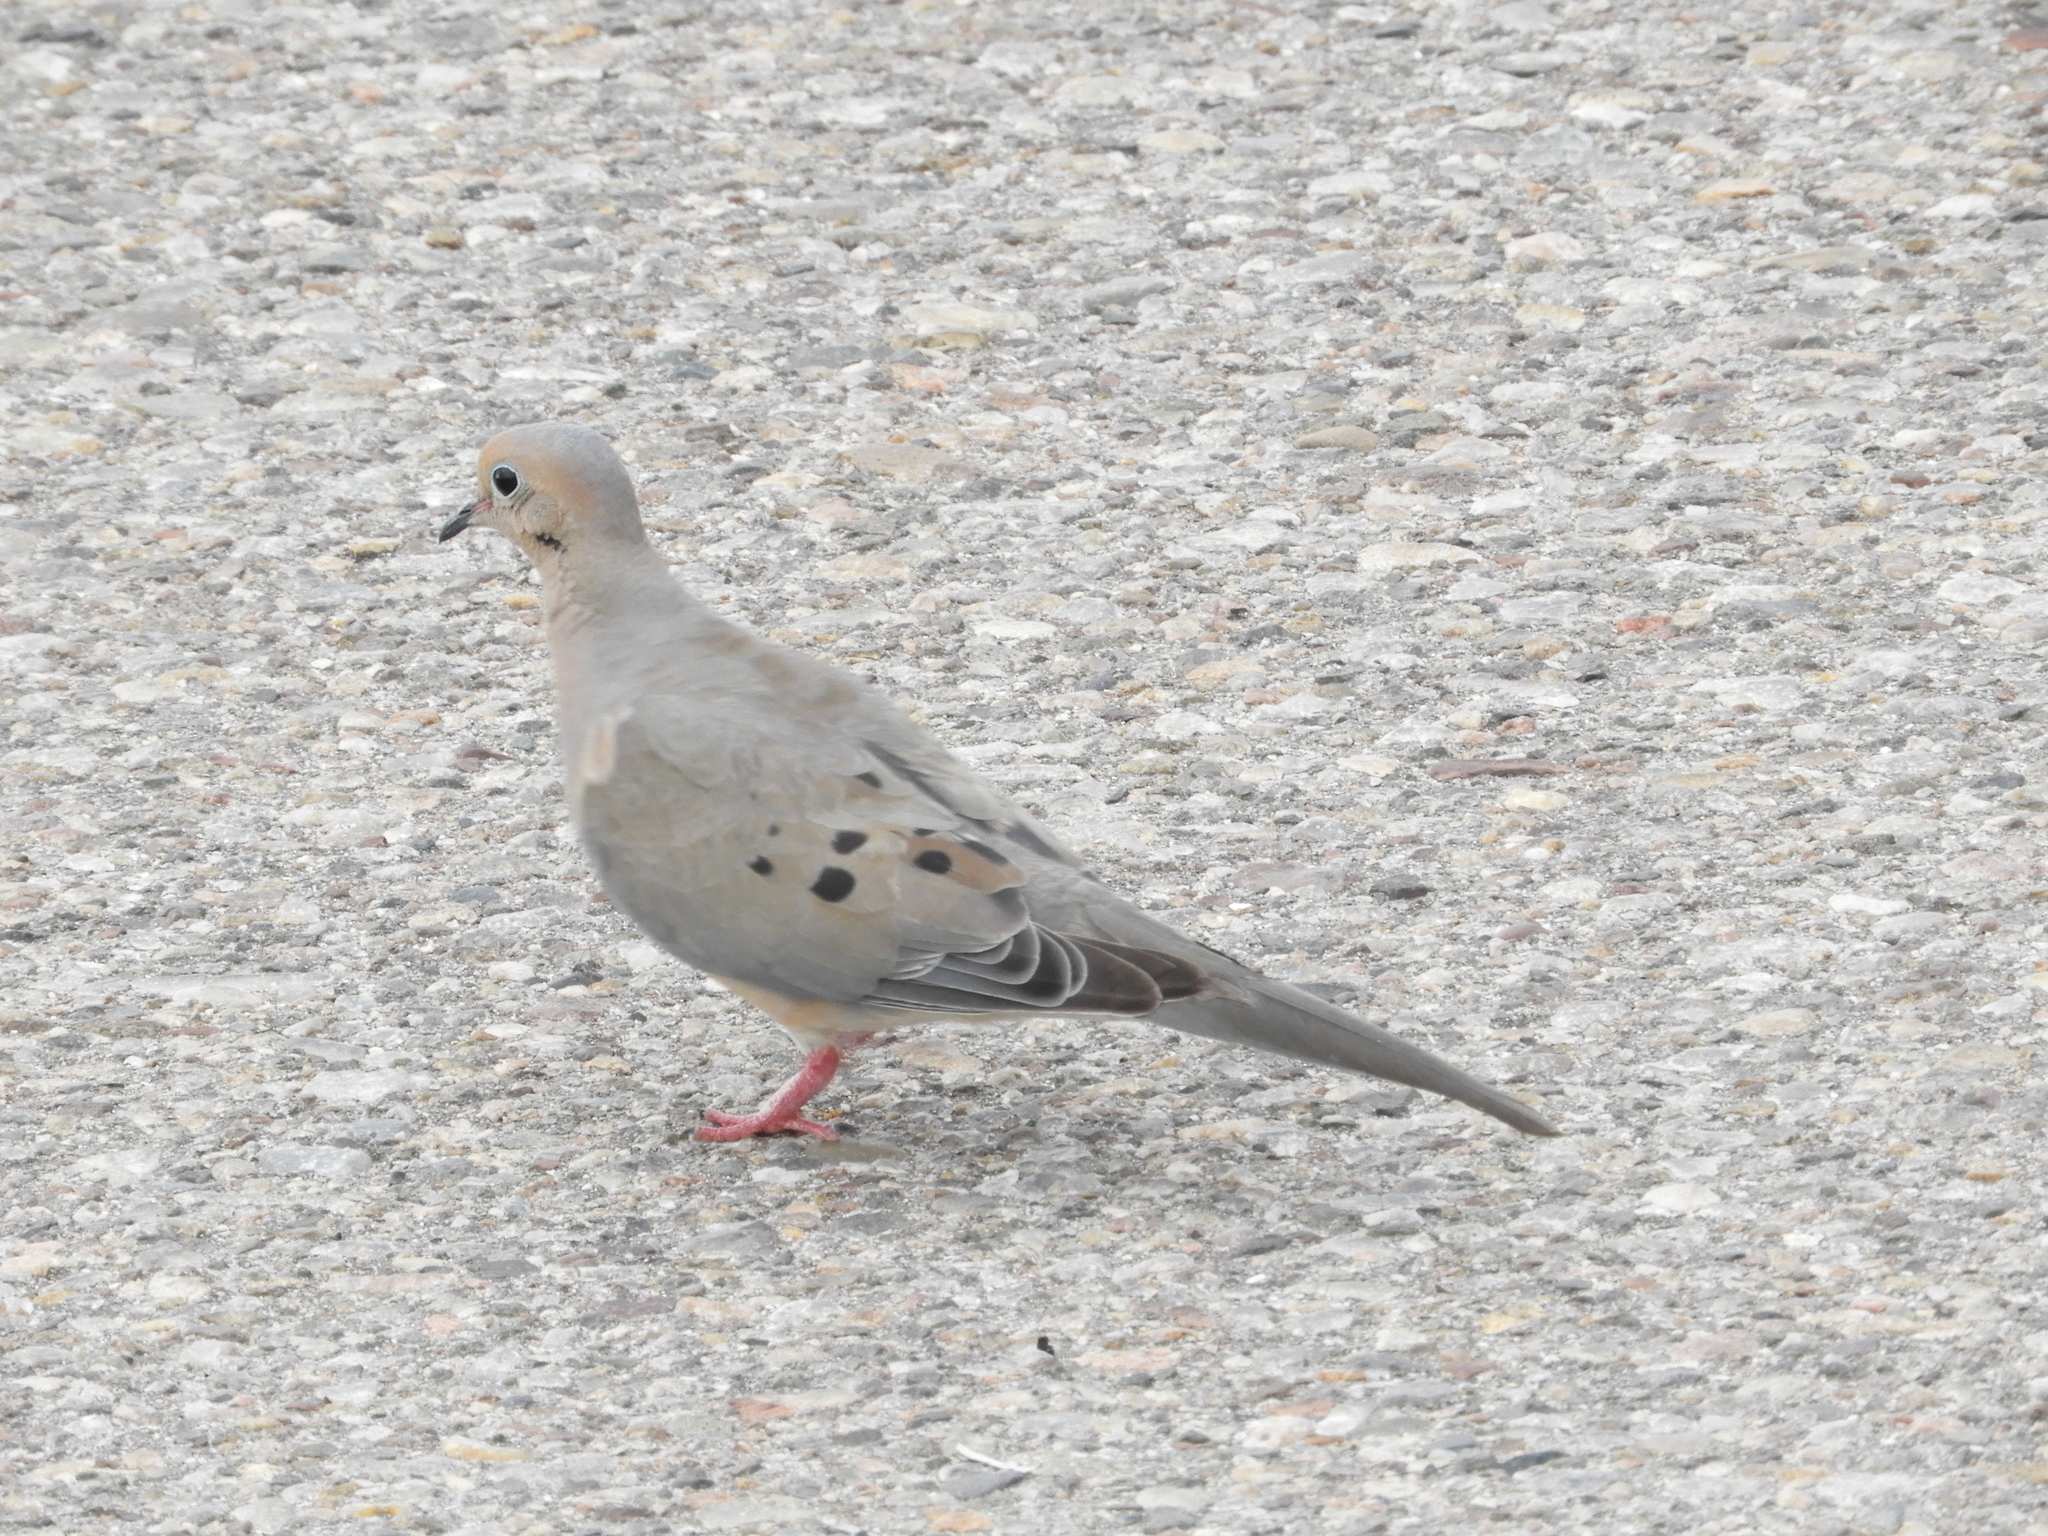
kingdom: Animalia
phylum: Chordata
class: Aves
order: Columbiformes
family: Columbidae
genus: Zenaida
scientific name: Zenaida macroura
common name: Mourning dove
